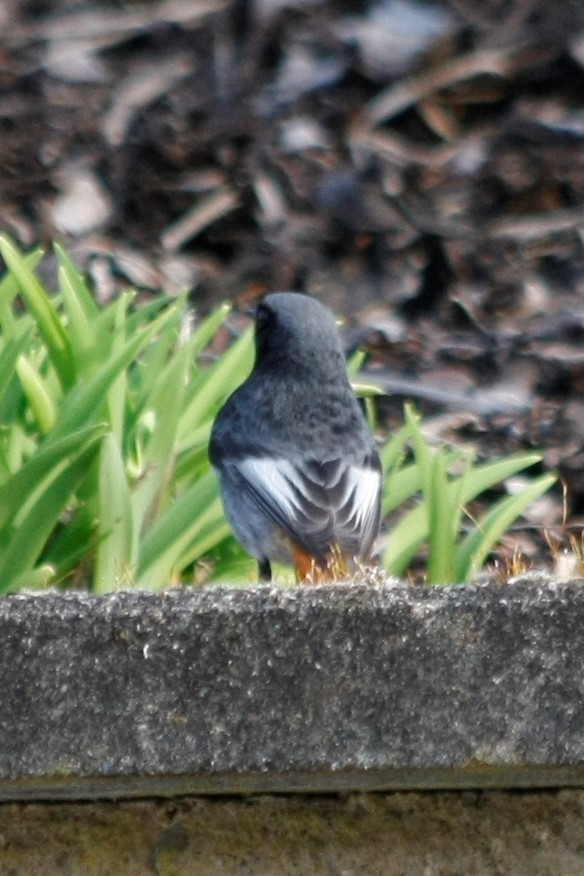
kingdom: Animalia
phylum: Chordata
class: Aves
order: Passeriformes
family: Muscicapidae
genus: Phoenicurus
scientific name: Phoenicurus ochruros
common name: Black redstart
